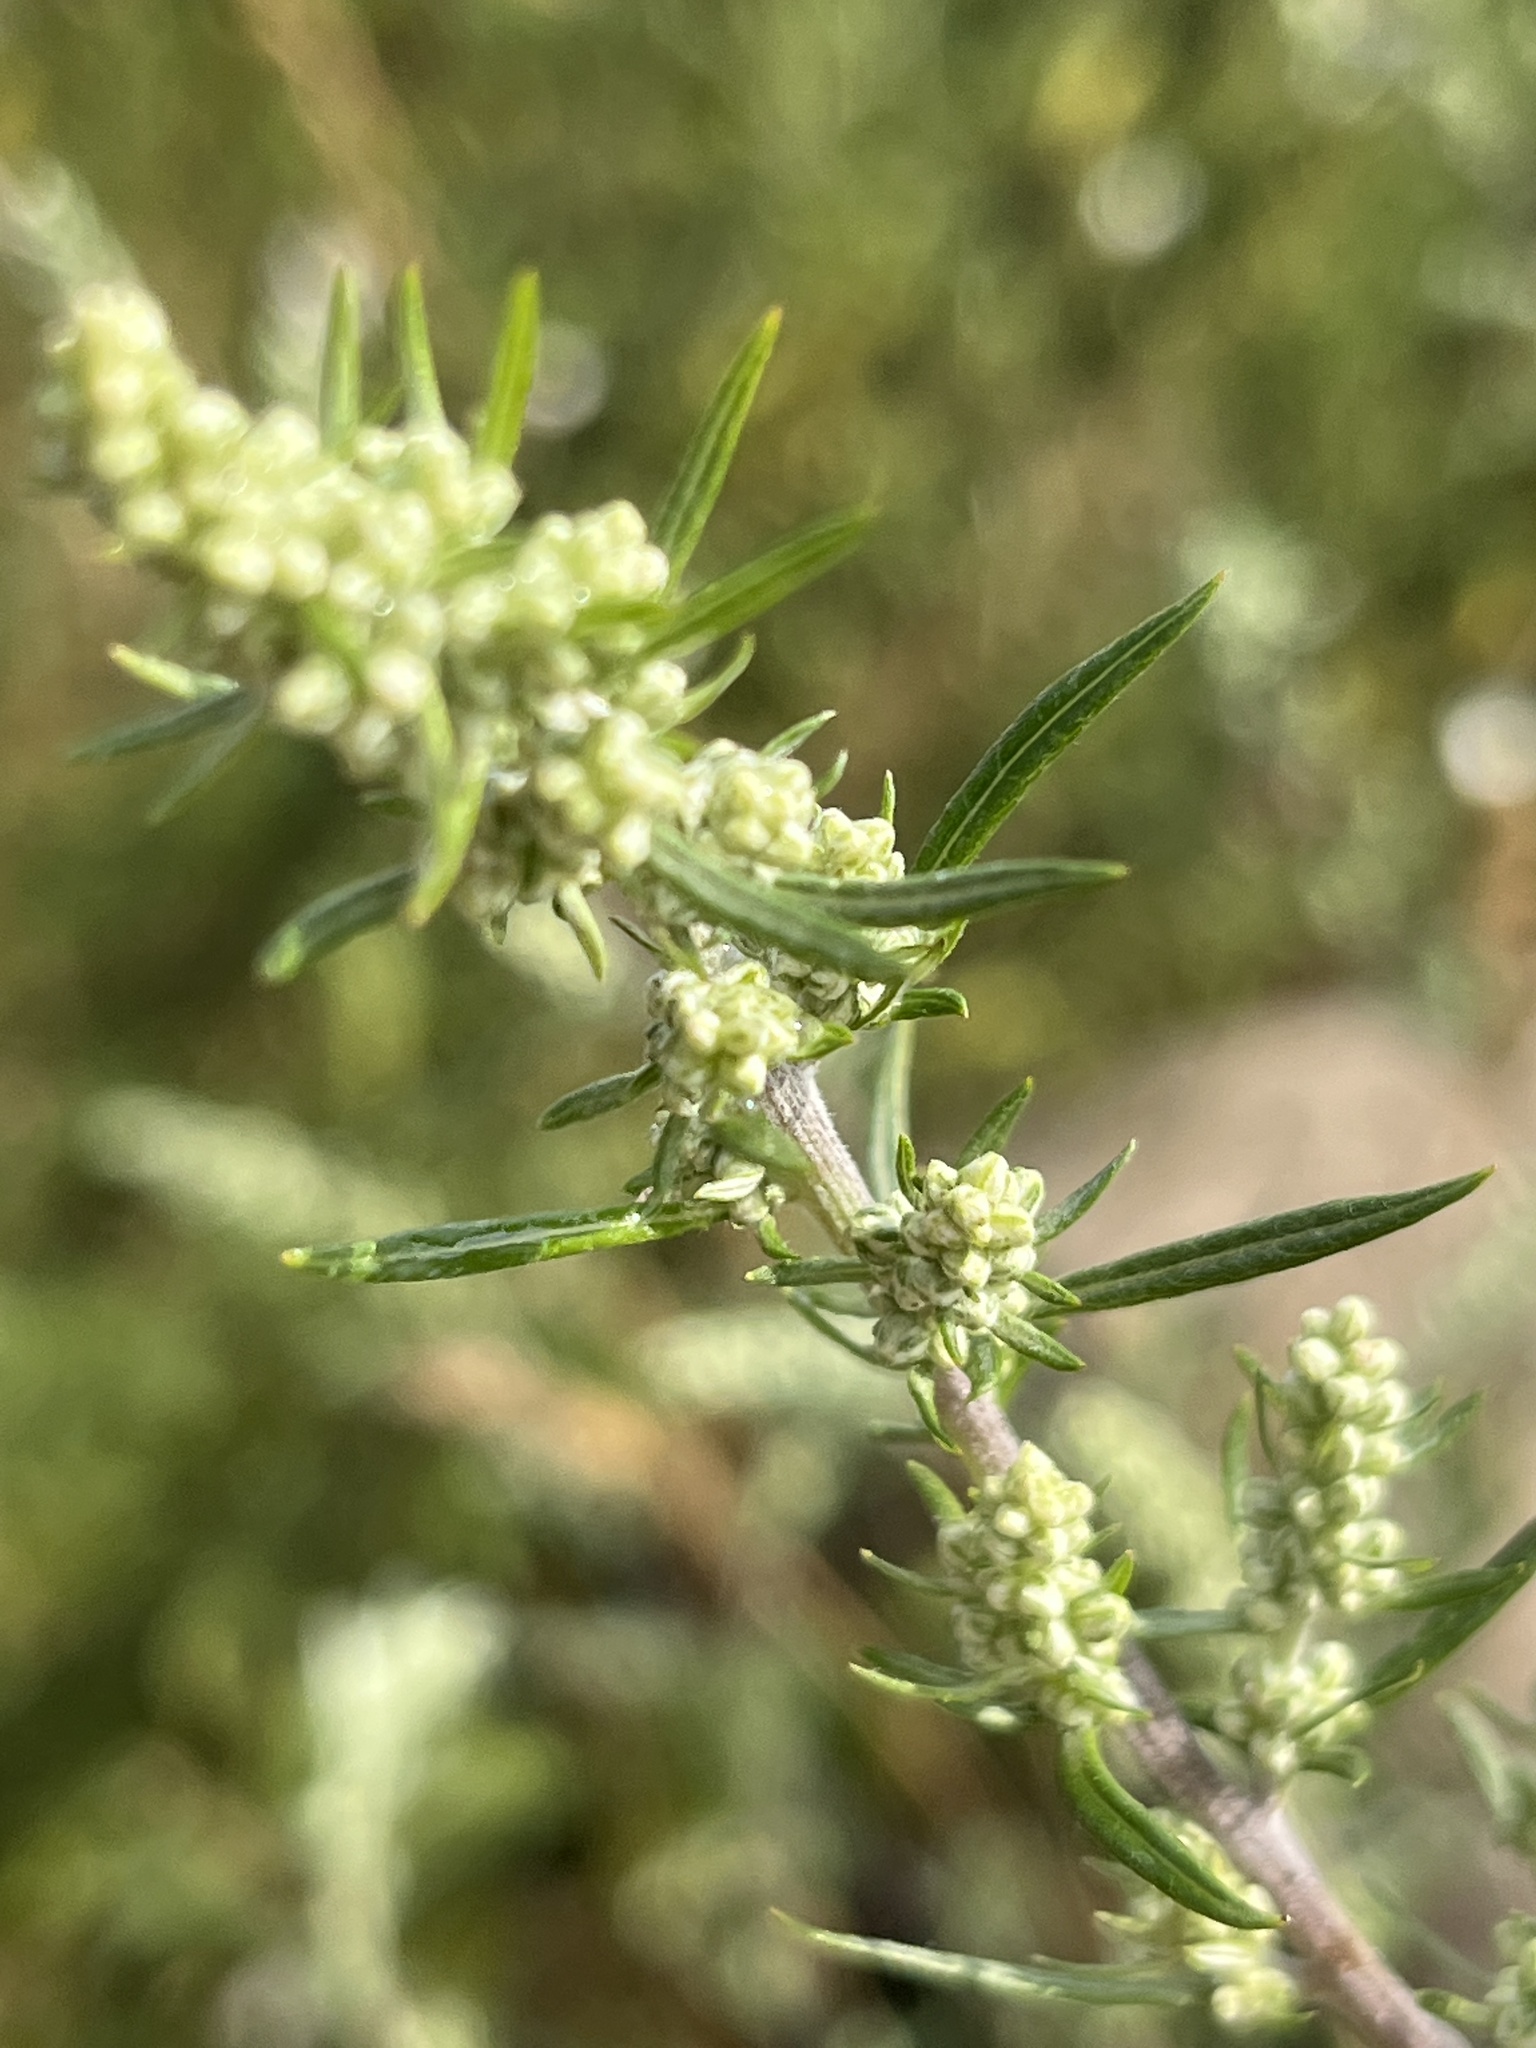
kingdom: Plantae
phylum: Tracheophyta
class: Magnoliopsida
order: Asterales
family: Asteraceae
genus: Artemisia
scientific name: Artemisia vulgaris
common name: Mugwort
